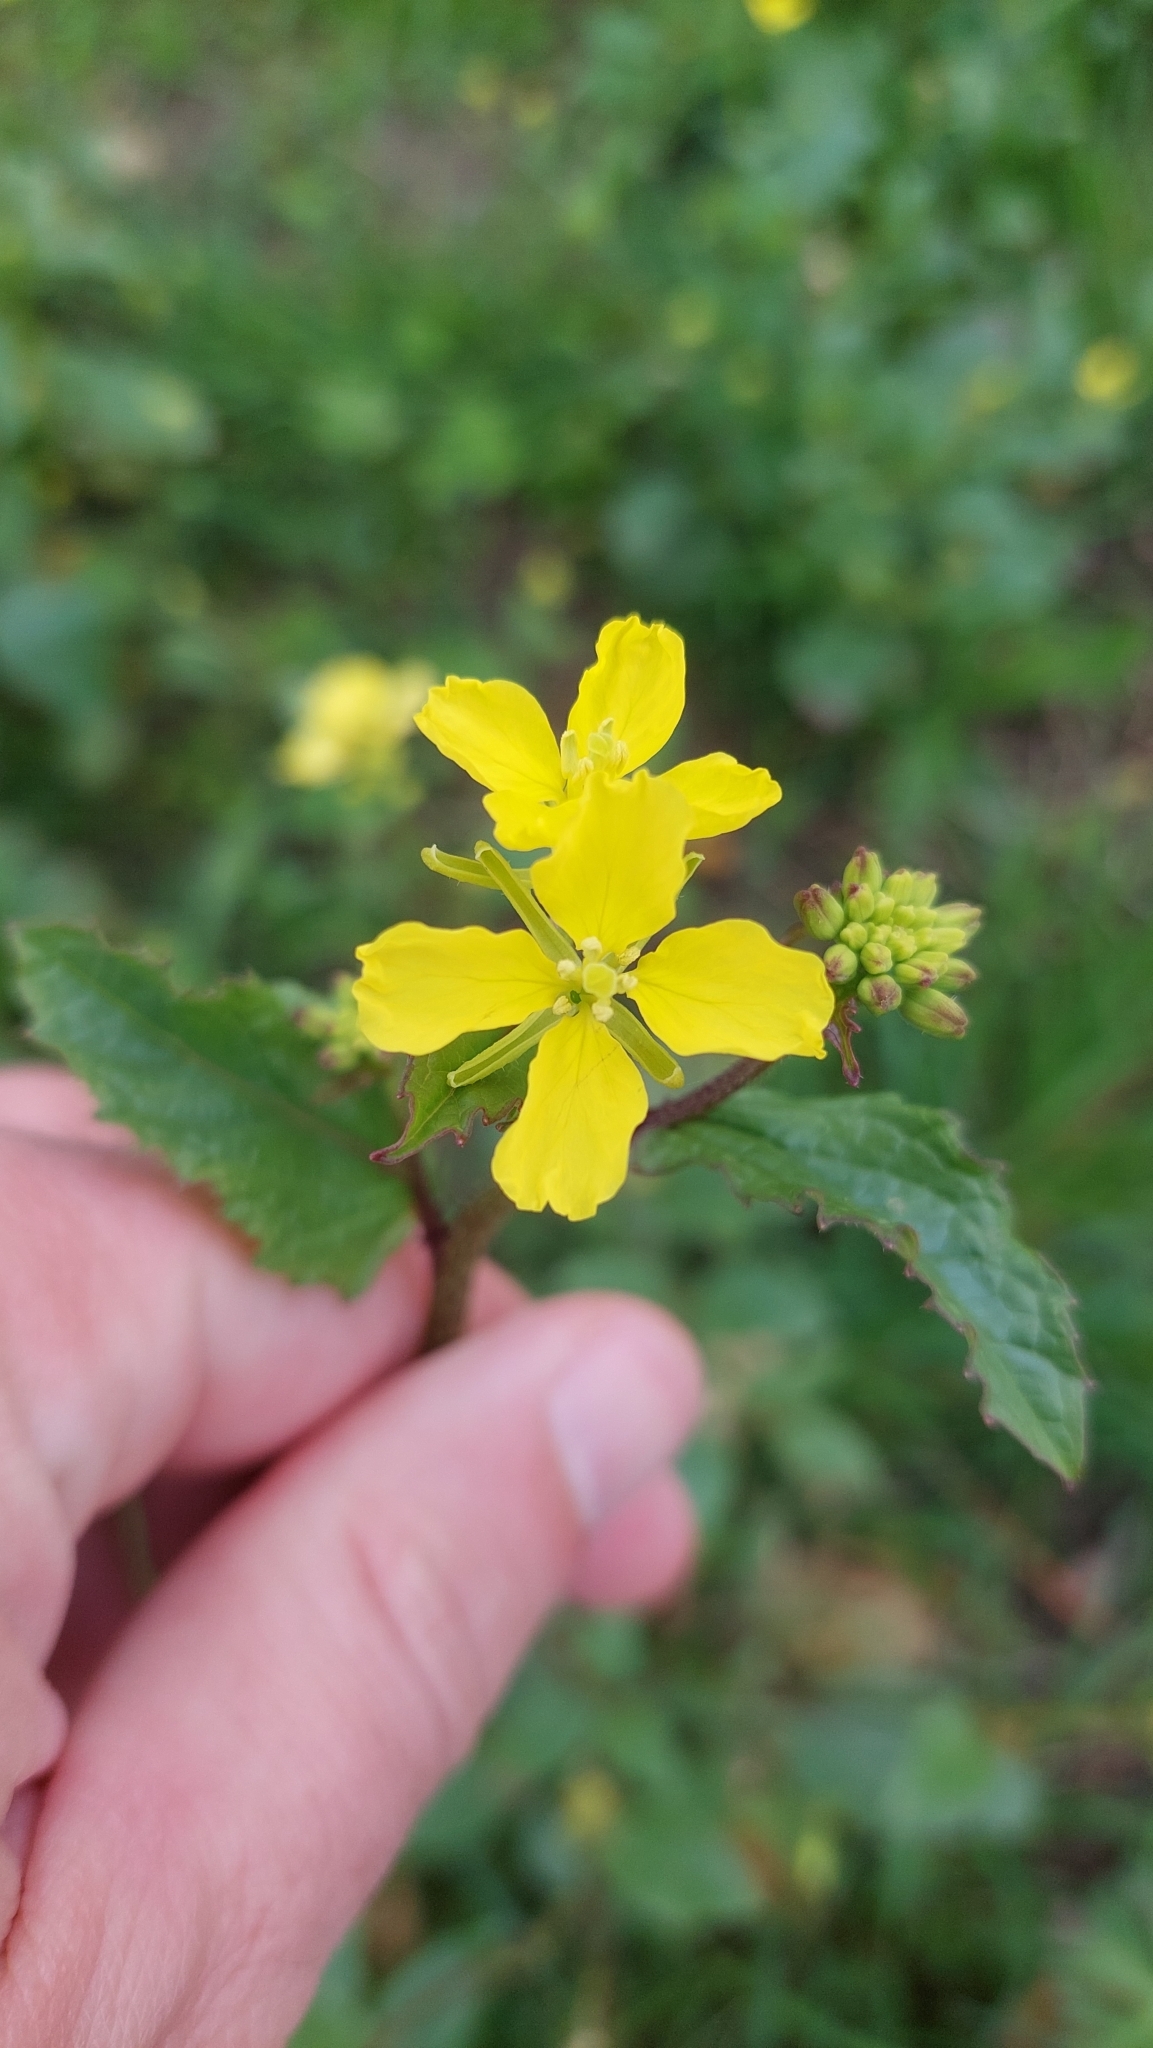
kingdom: Plantae
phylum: Tracheophyta
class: Magnoliopsida
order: Brassicales
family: Brassicaceae
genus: Sinapis
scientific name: Sinapis arvensis
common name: Charlock
